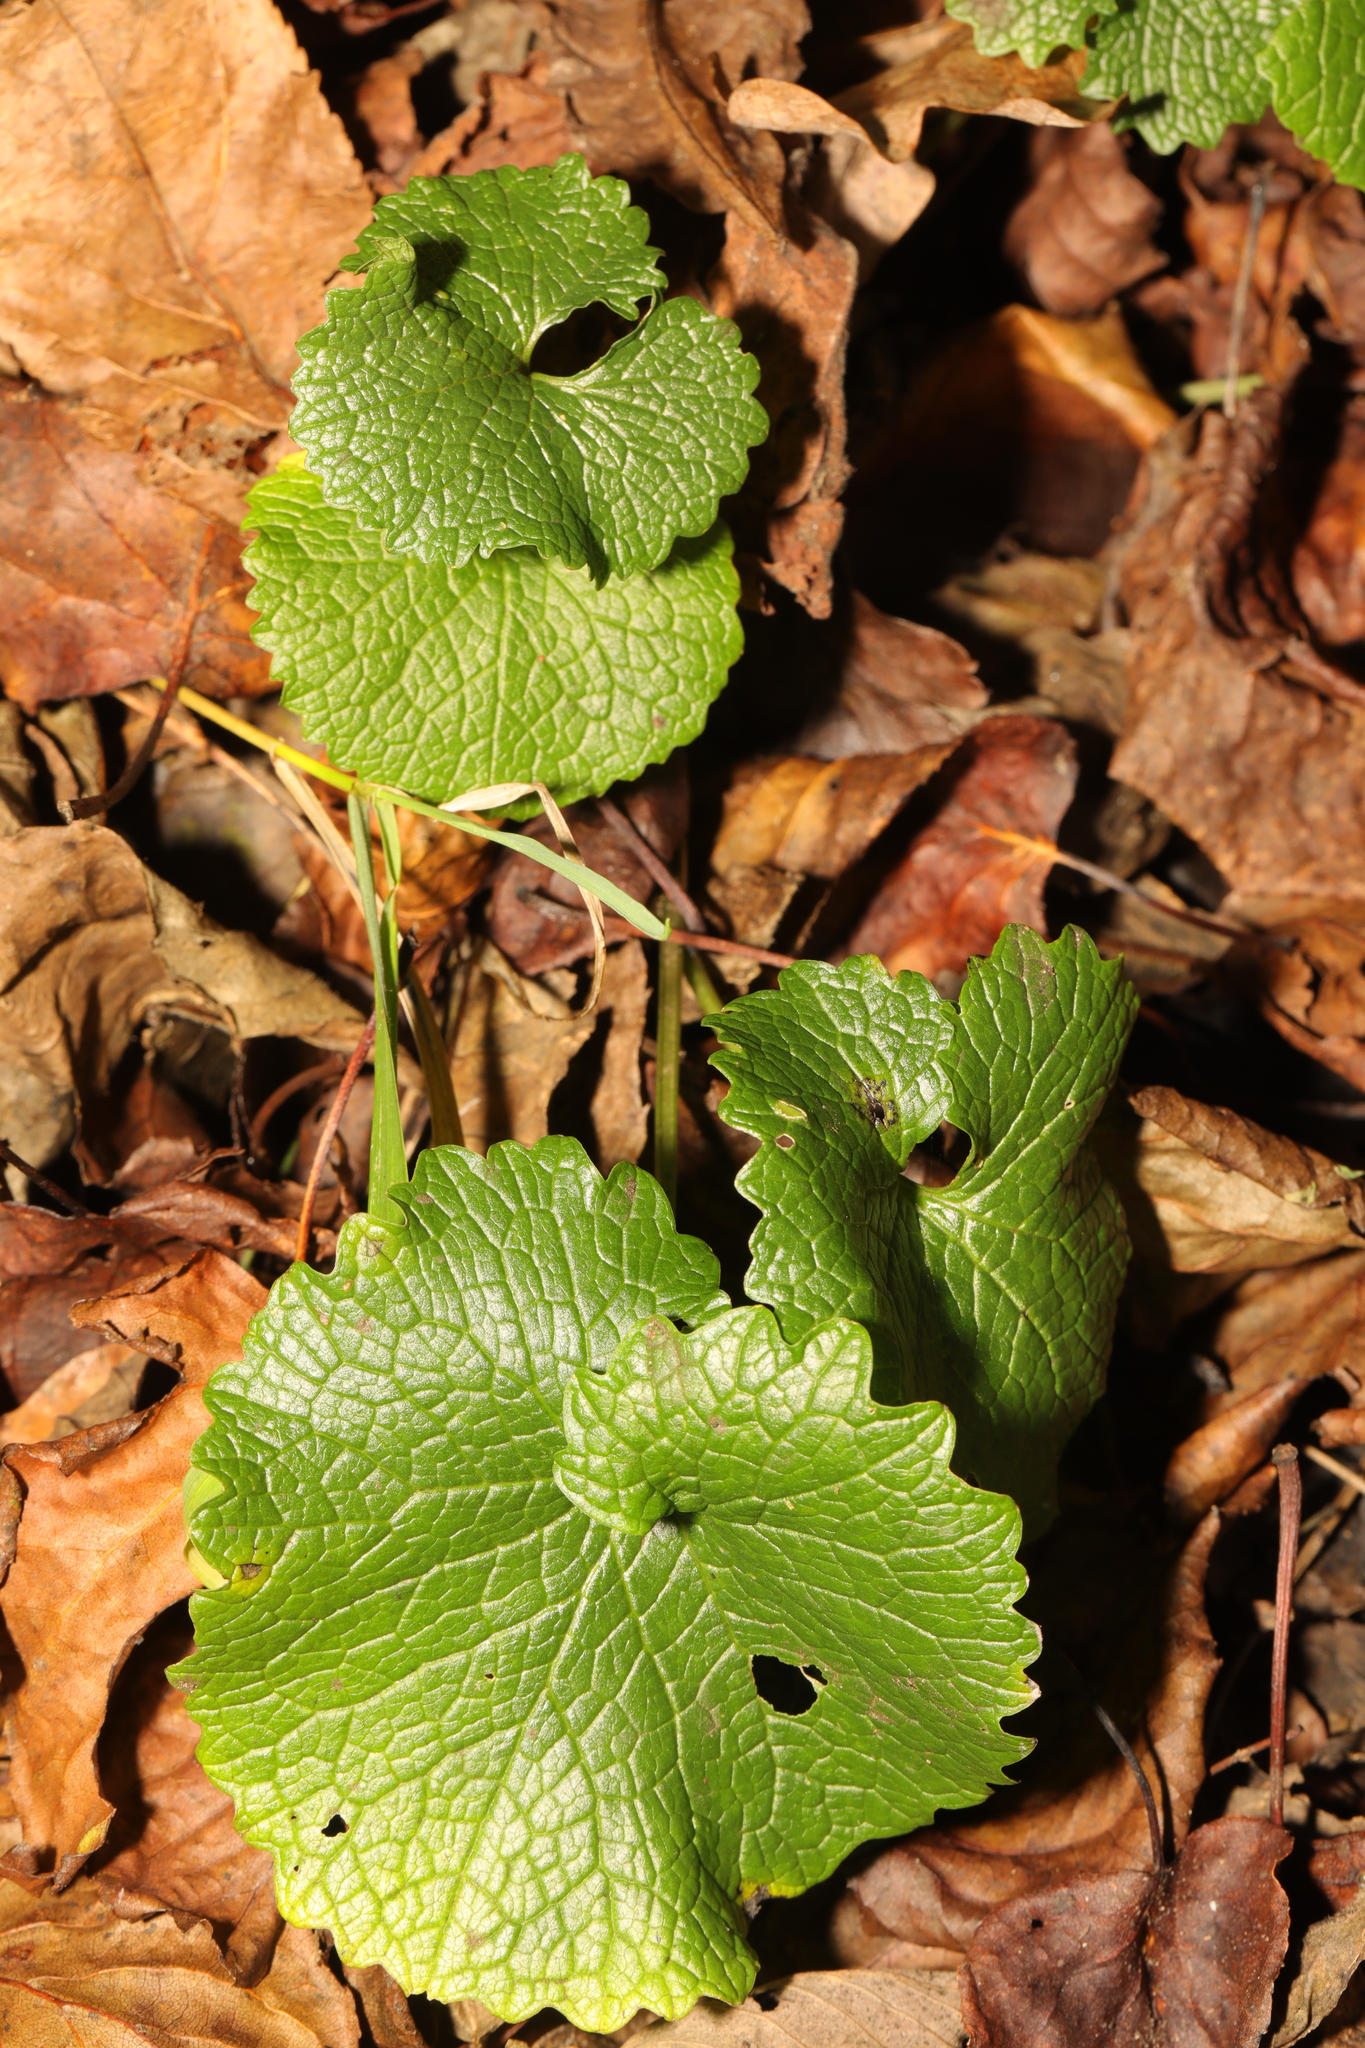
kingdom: Plantae
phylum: Tracheophyta
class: Magnoliopsida
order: Brassicales
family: Brassicaceae
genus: Alliaria
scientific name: Alliaria petiolata
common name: Garlic mustard
